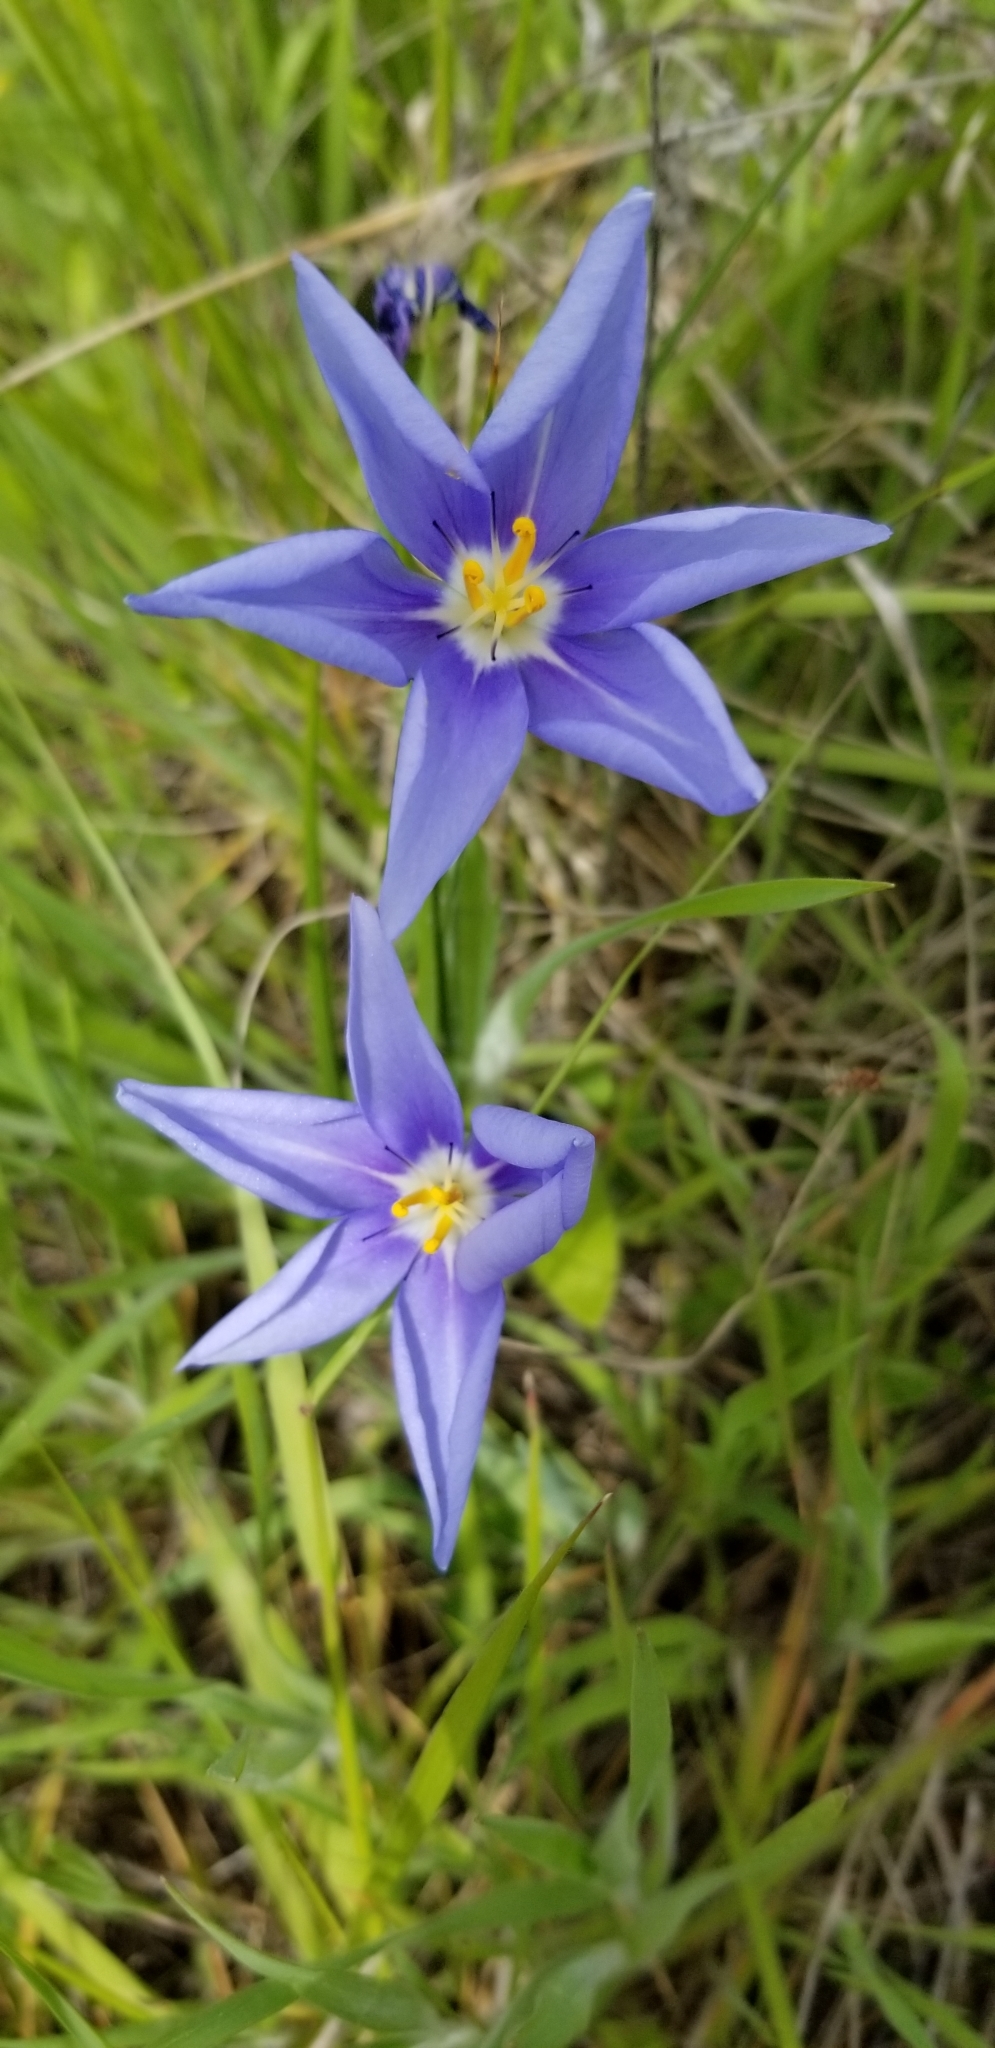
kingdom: Plantae
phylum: Tracheophyta
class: Liliopsida
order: Asparagales
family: Iridaceae
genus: Nemastylis
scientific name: Nemastylis geminiflora
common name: Prairie celestial
